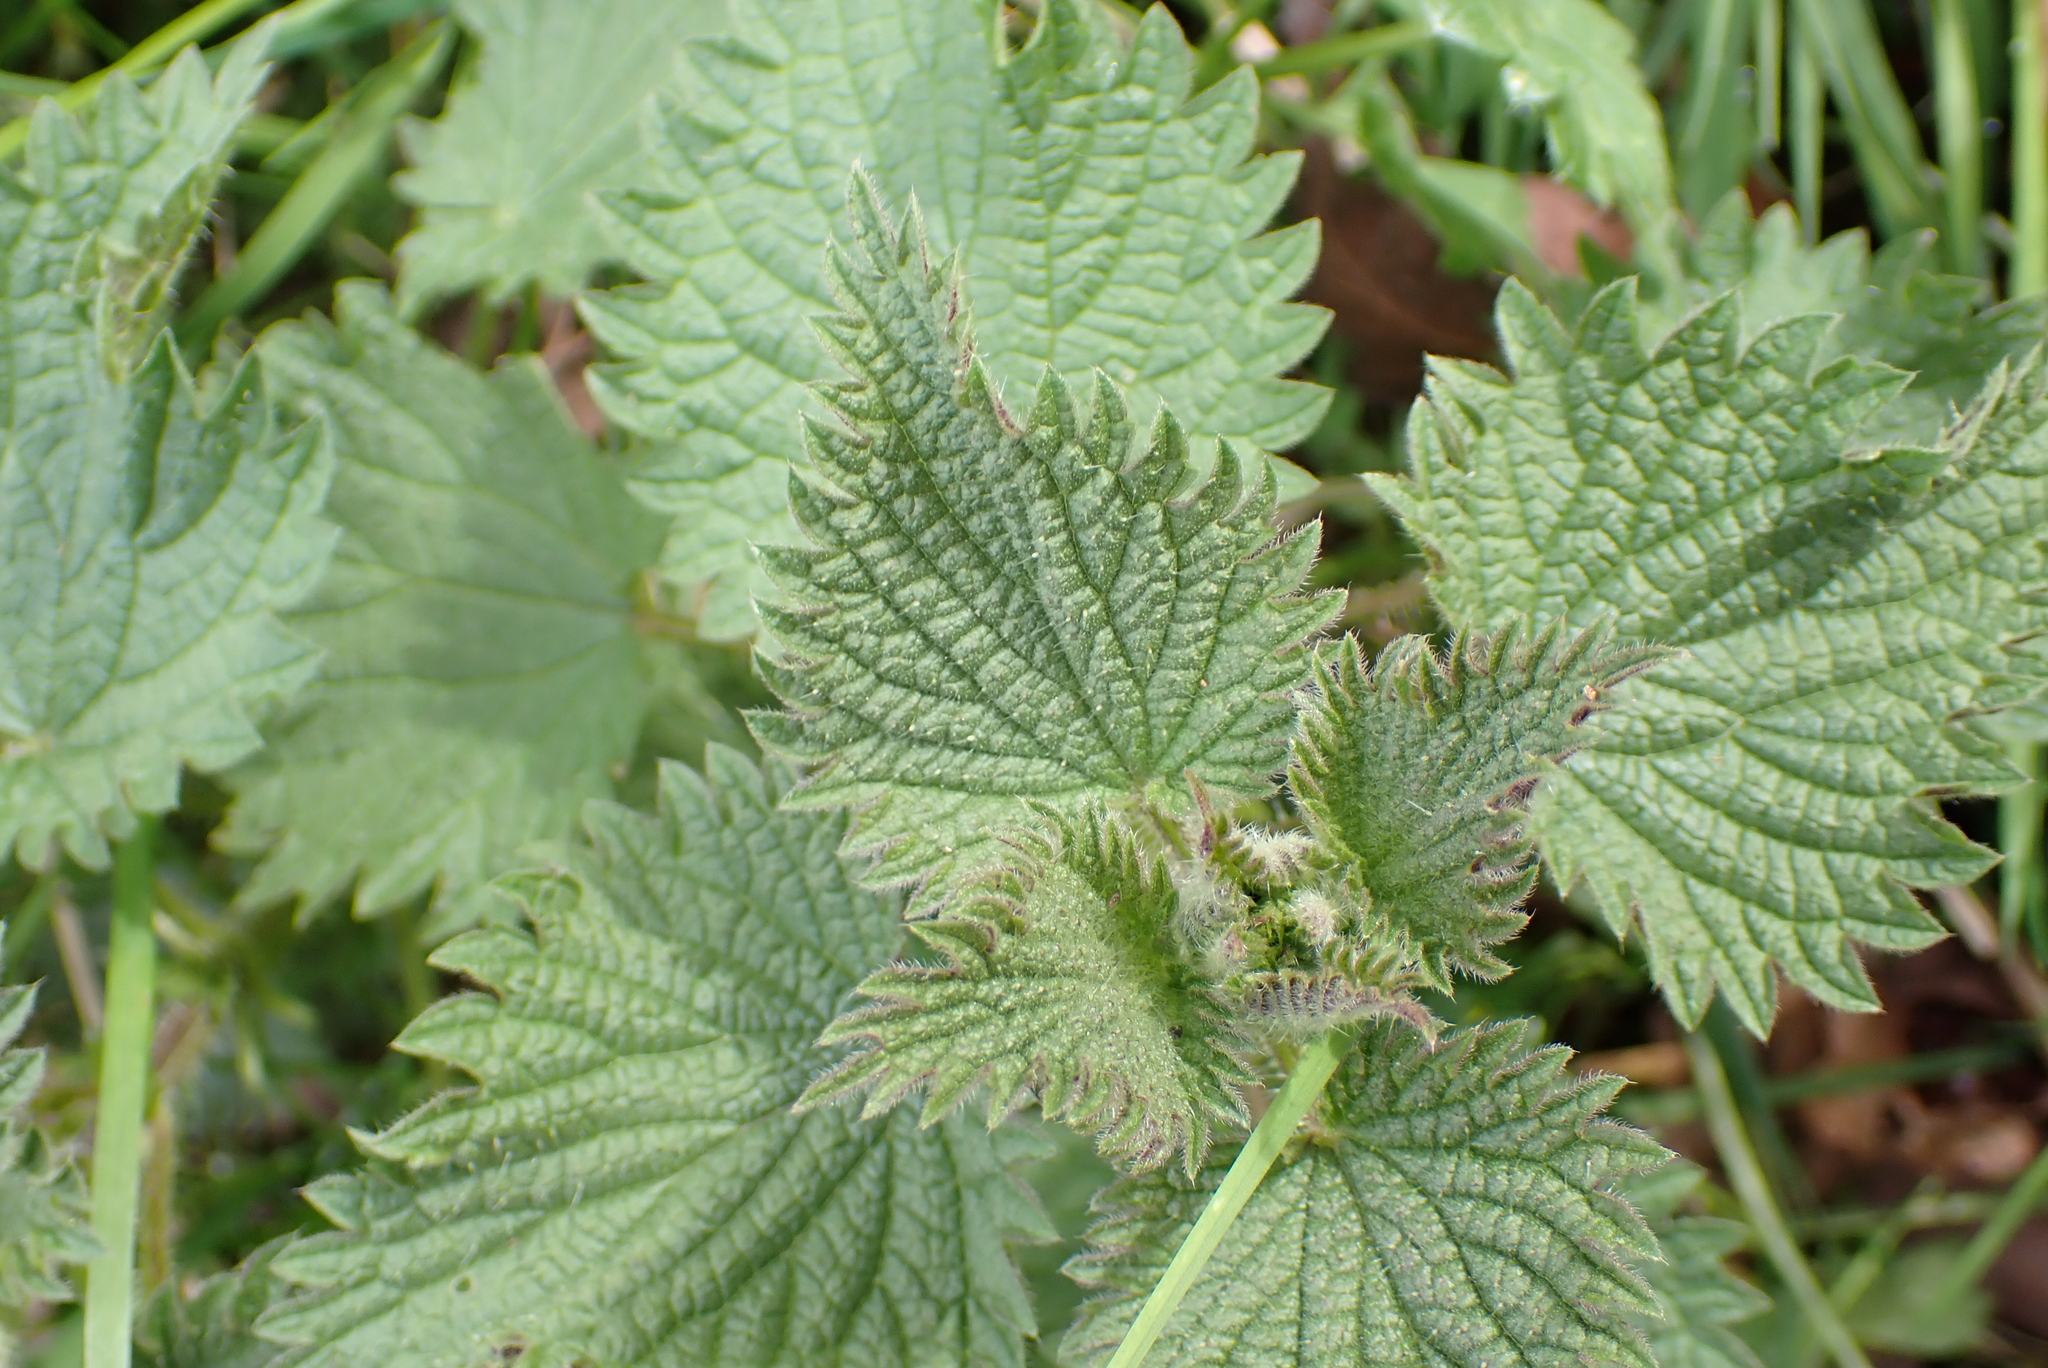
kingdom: Plantae
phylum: Tracheophyta
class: Magnoliopsida
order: Rosales
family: Urticaceae
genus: Urtica
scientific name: Urtica dioica
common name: Common nettle
